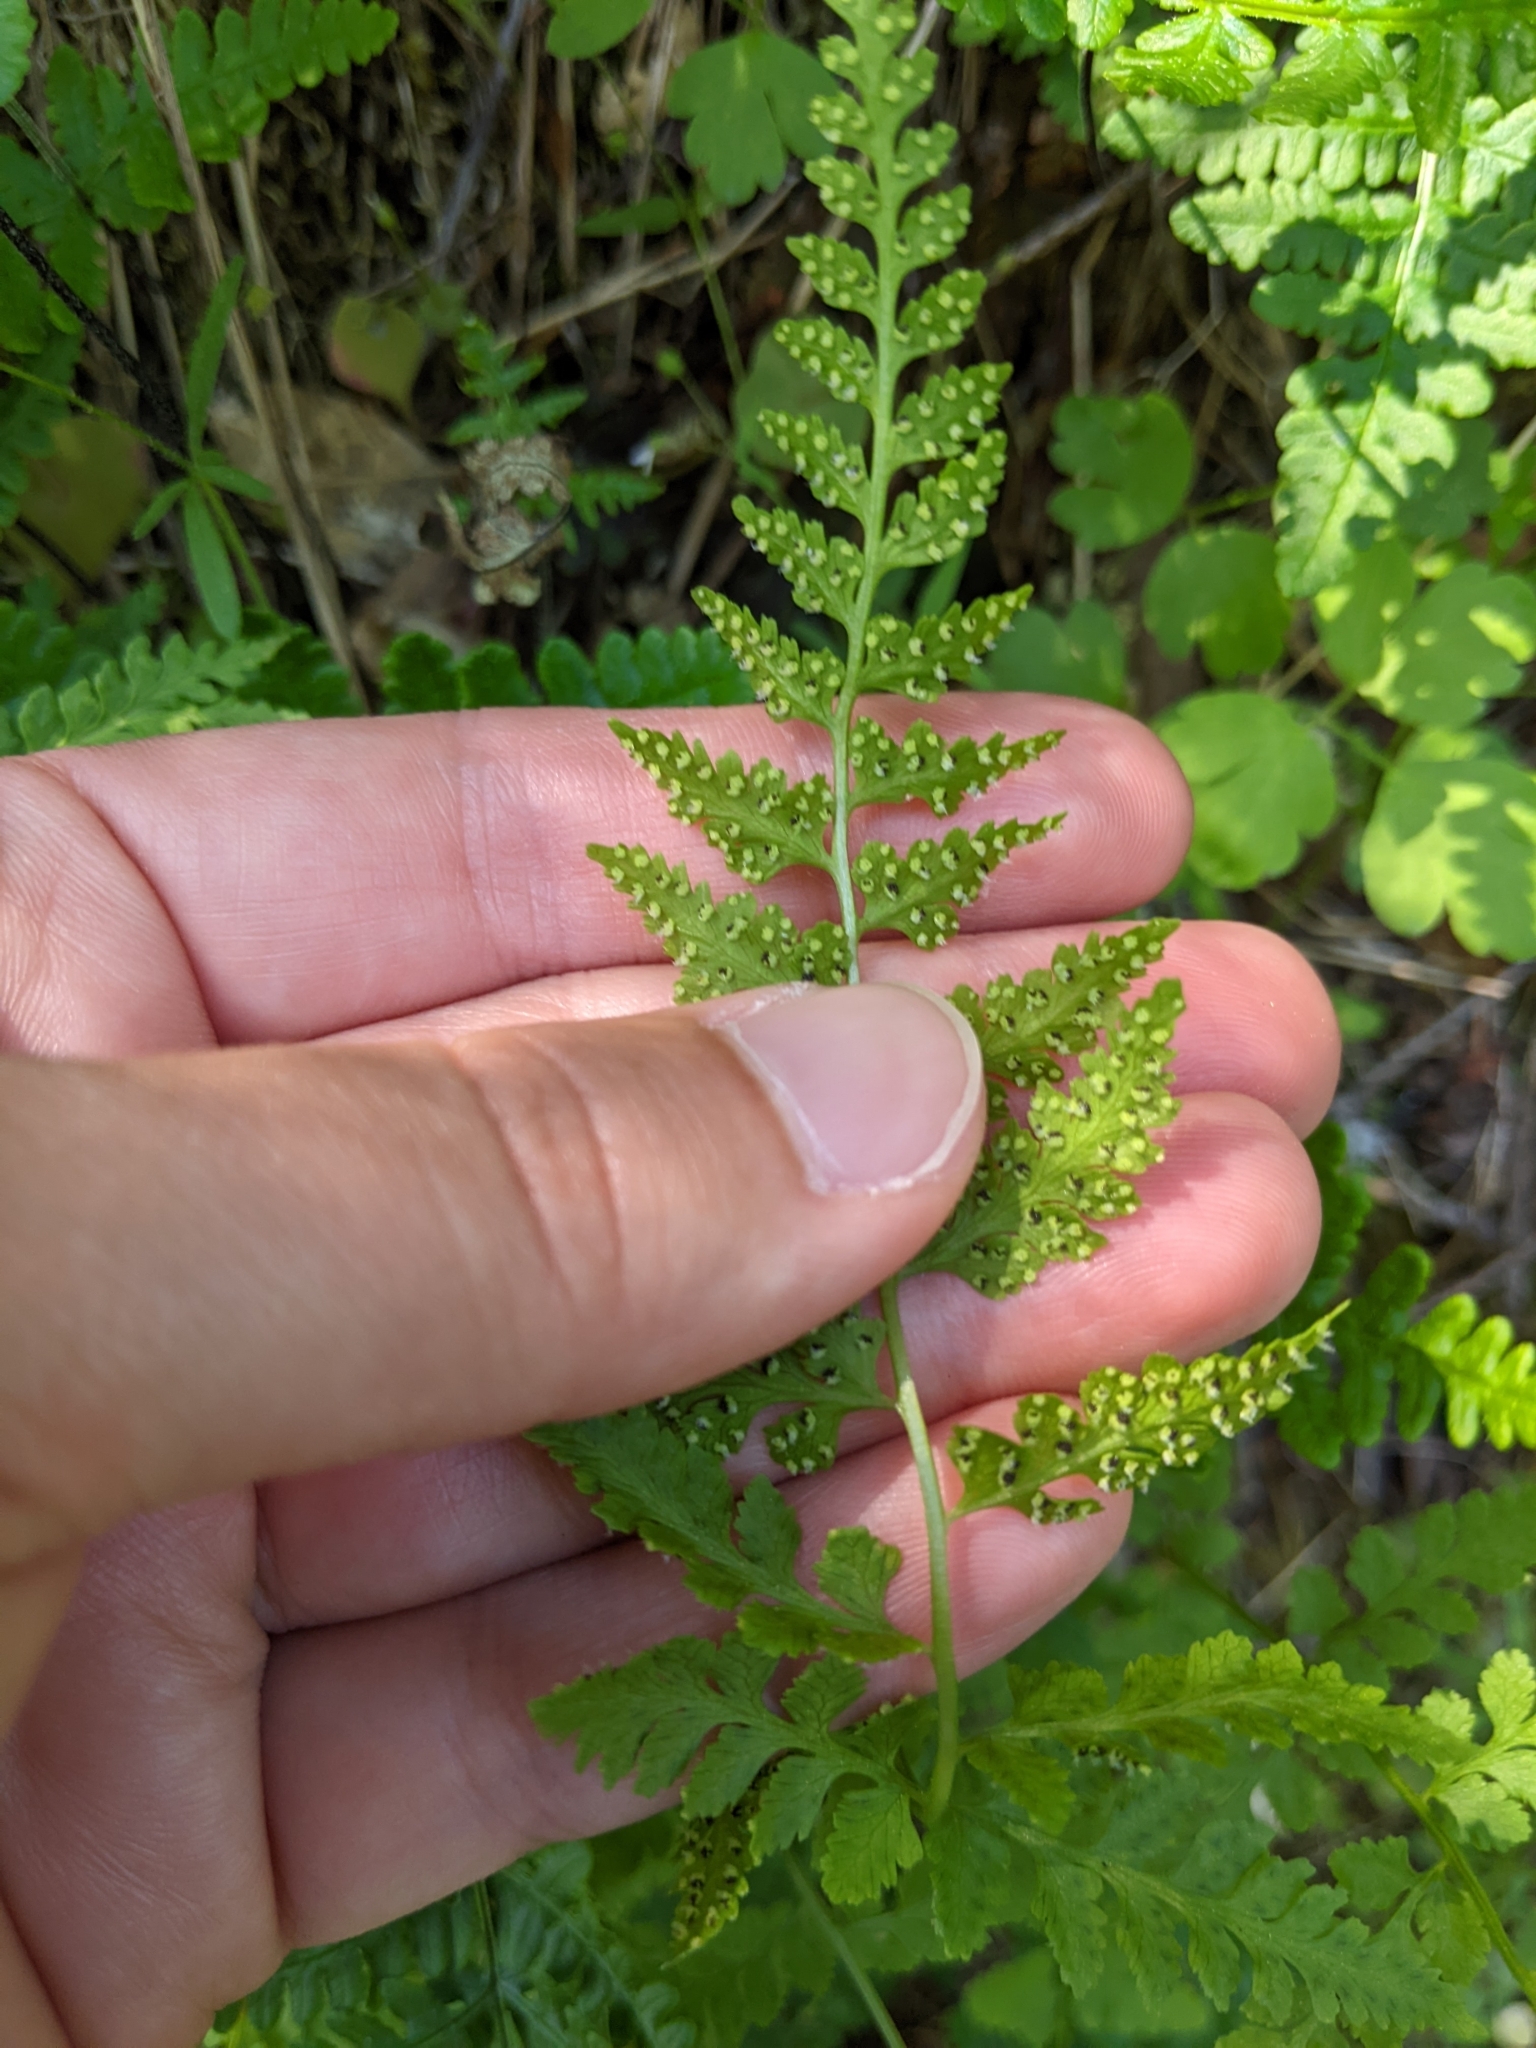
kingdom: Plantae
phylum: Tracheophyta
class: Polypodiopsida
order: Polypodiales
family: Cystopteridaceae
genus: Cystopteris
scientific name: Cystopteris fragilis
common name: Brittle bladder fern
